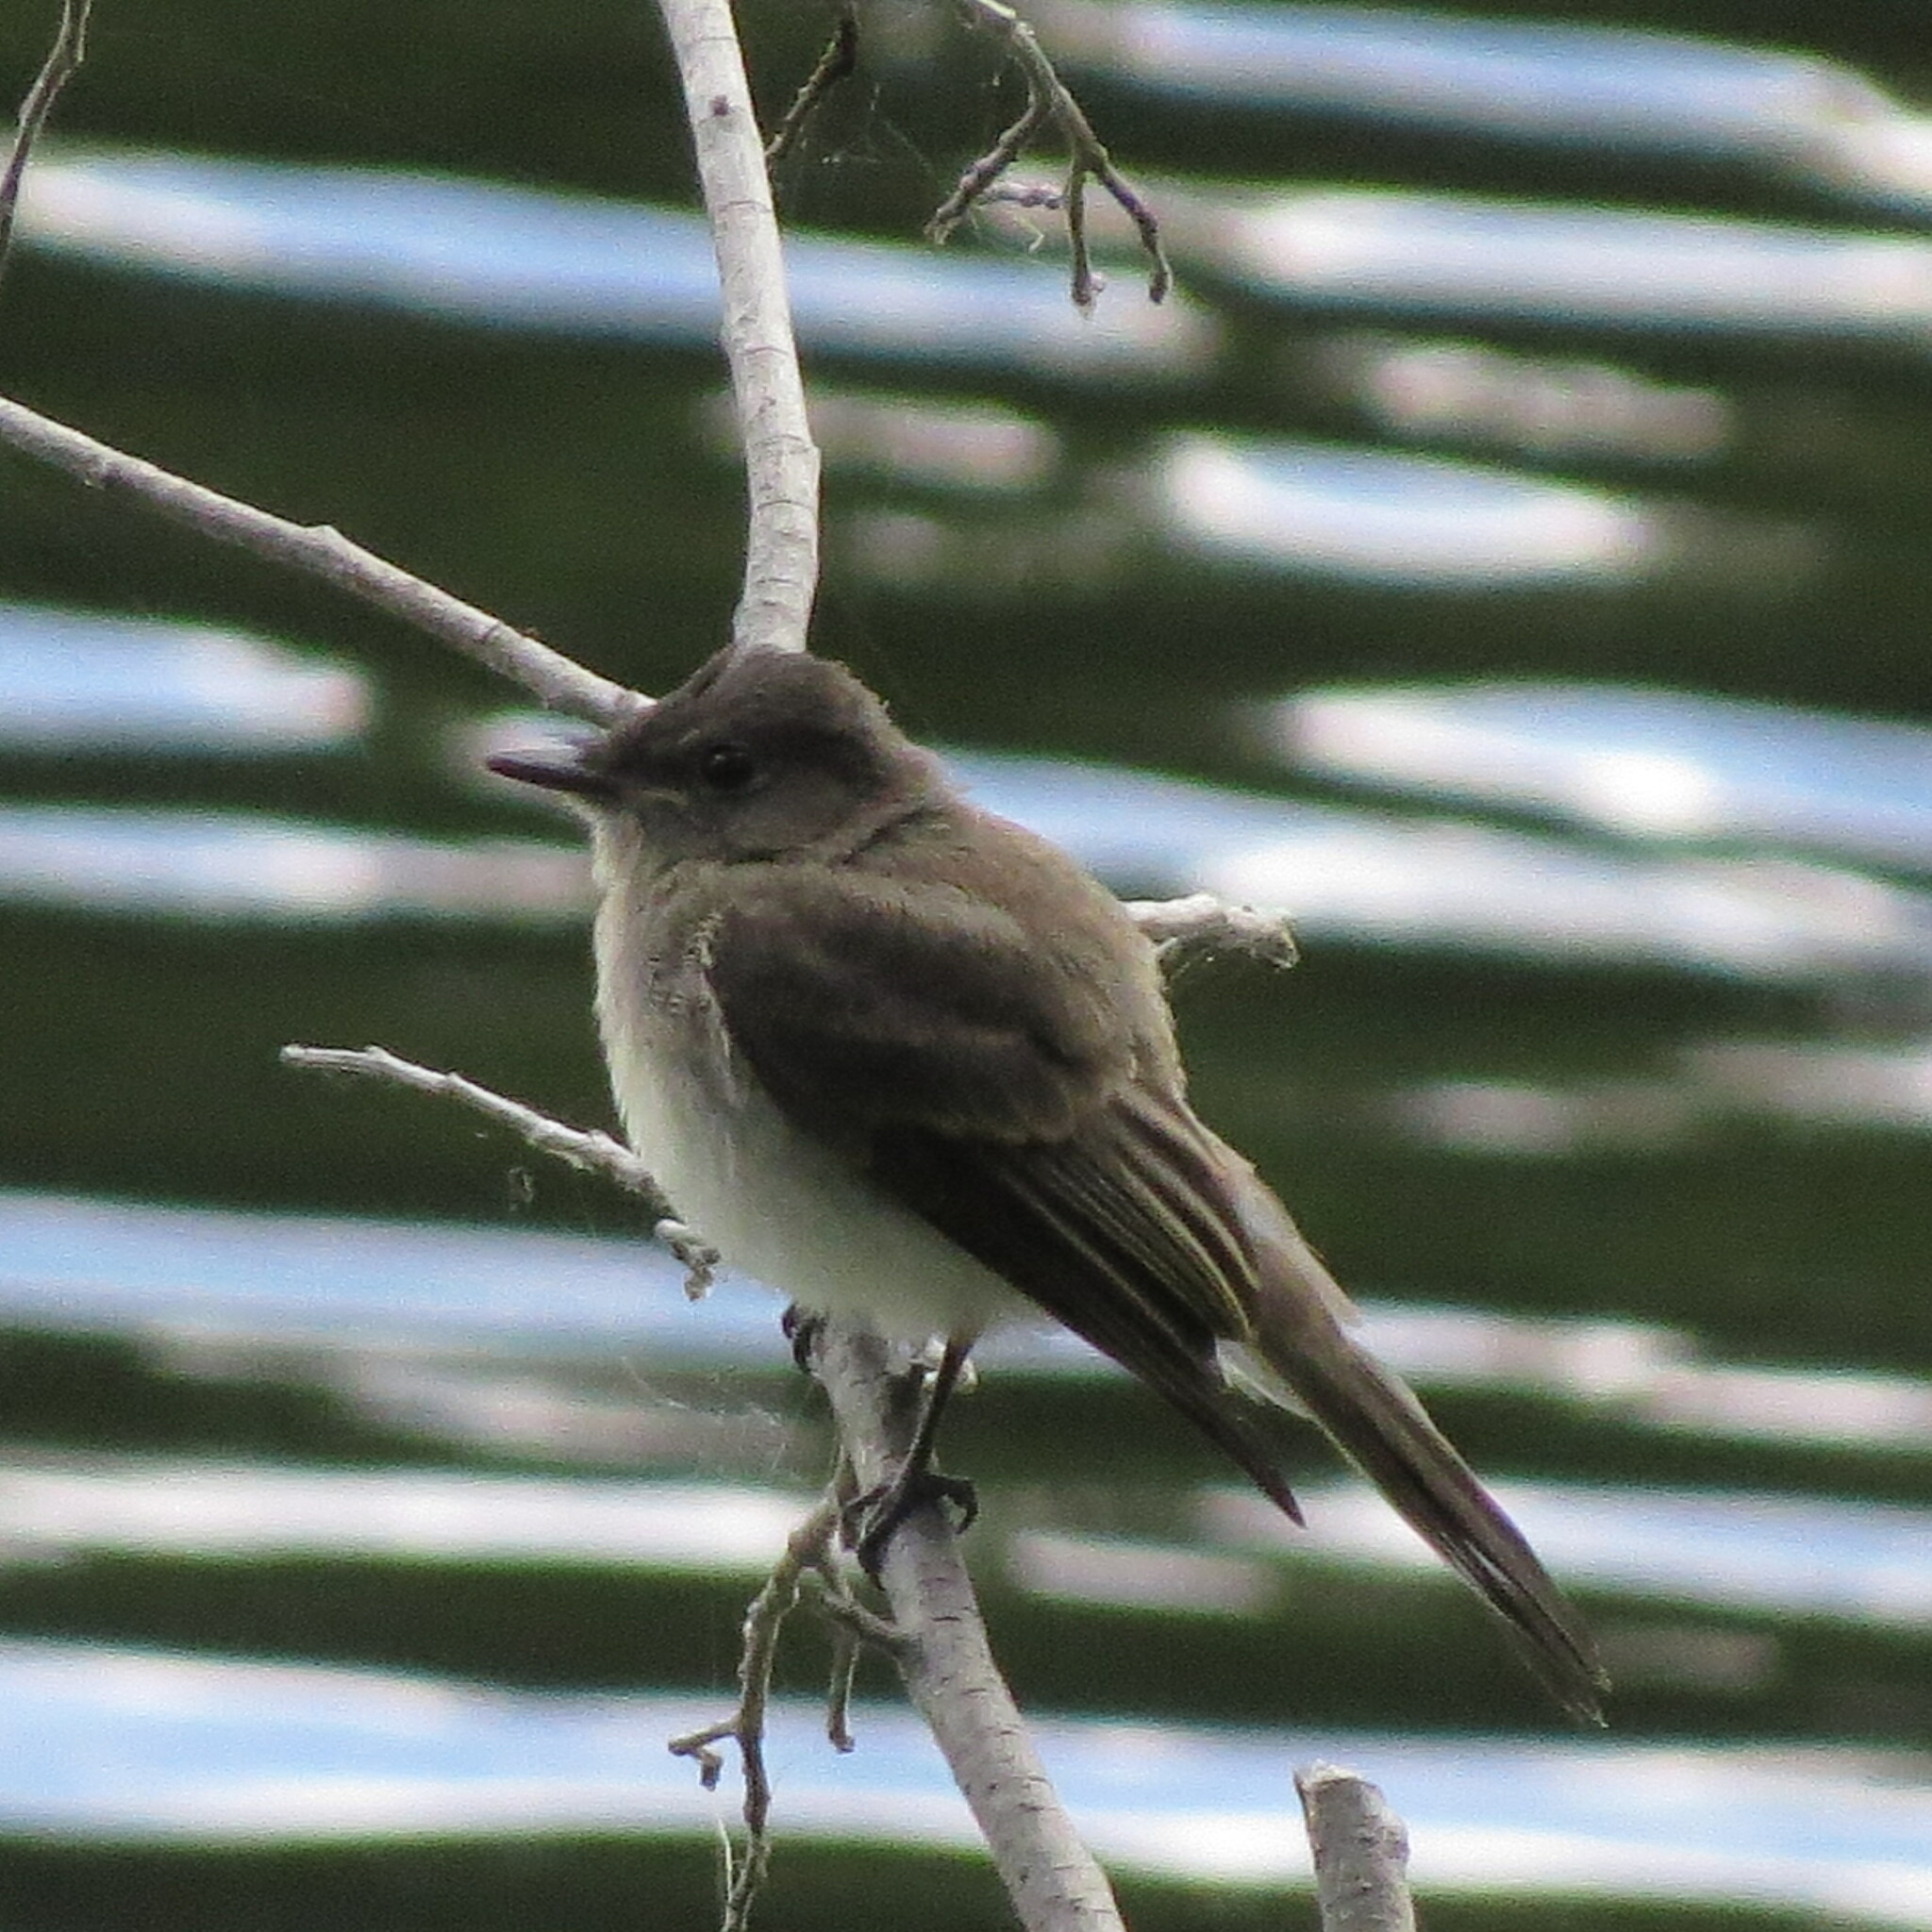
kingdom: Animalia
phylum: Chordata
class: Aves
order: Passeriformes
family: Tyrannidae
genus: Sayornis
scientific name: Sayornis phoebe
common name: Eastern phoebe
